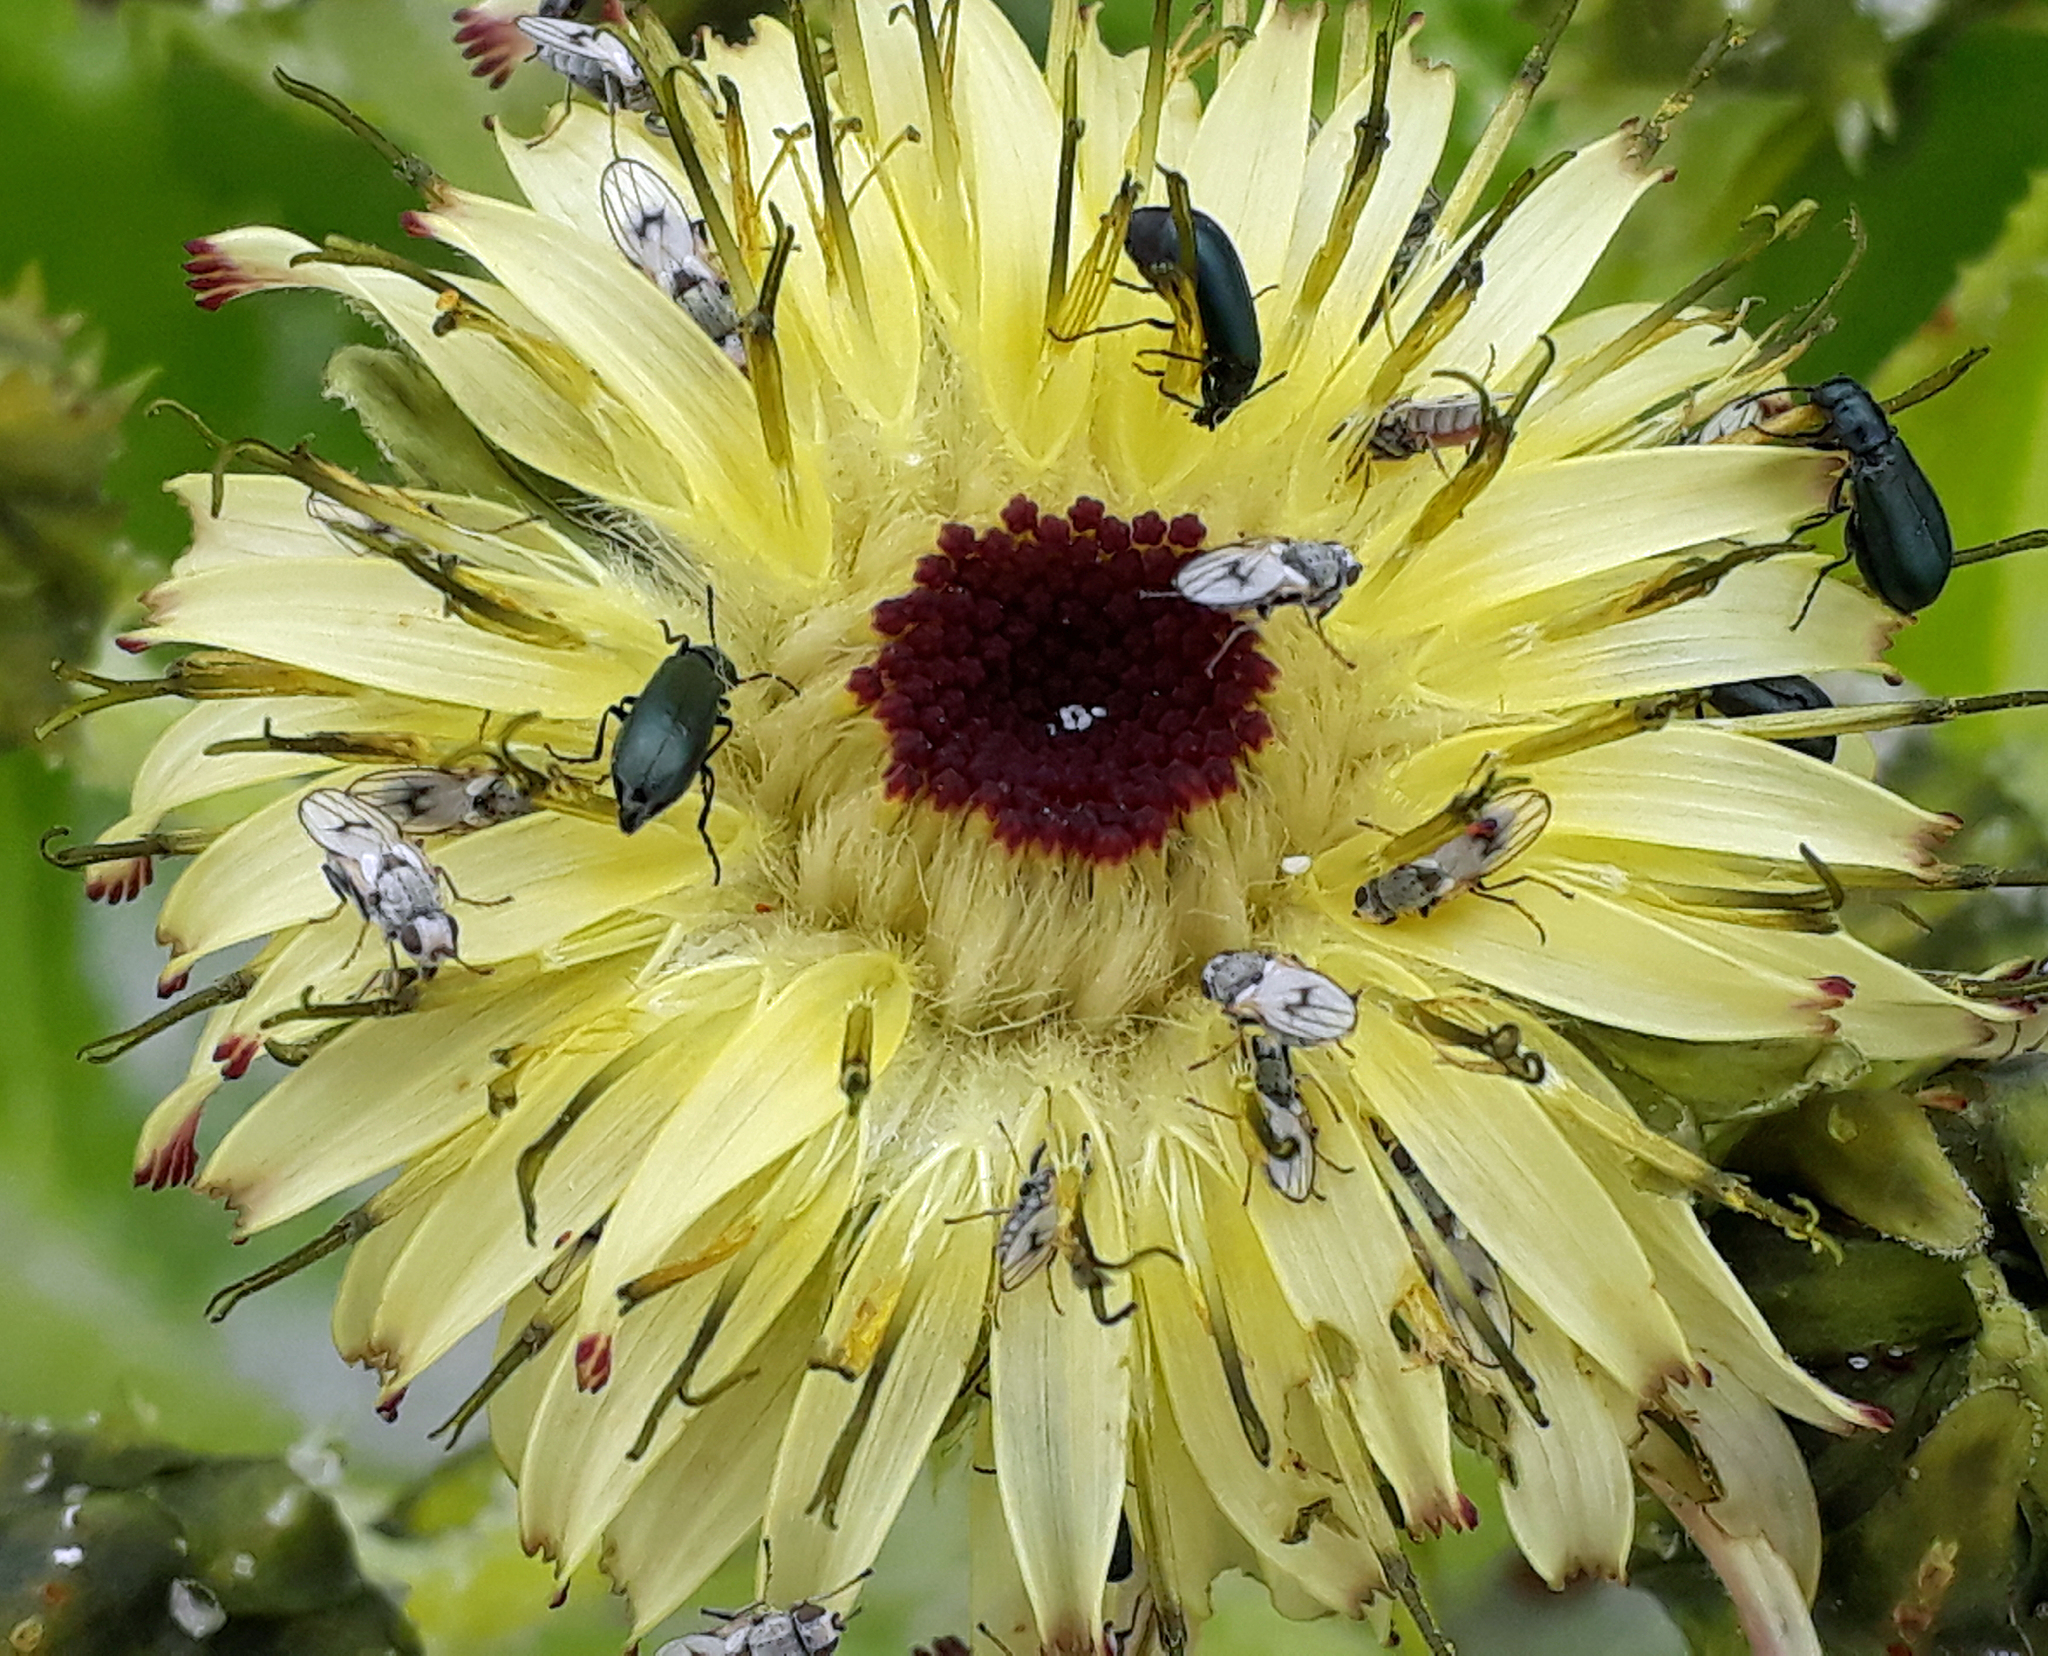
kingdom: Animalia
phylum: Arthropoda
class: Insecta
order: Diptera
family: Canacidae
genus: Tethinosoma
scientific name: Tethinosoma fulvifrons
